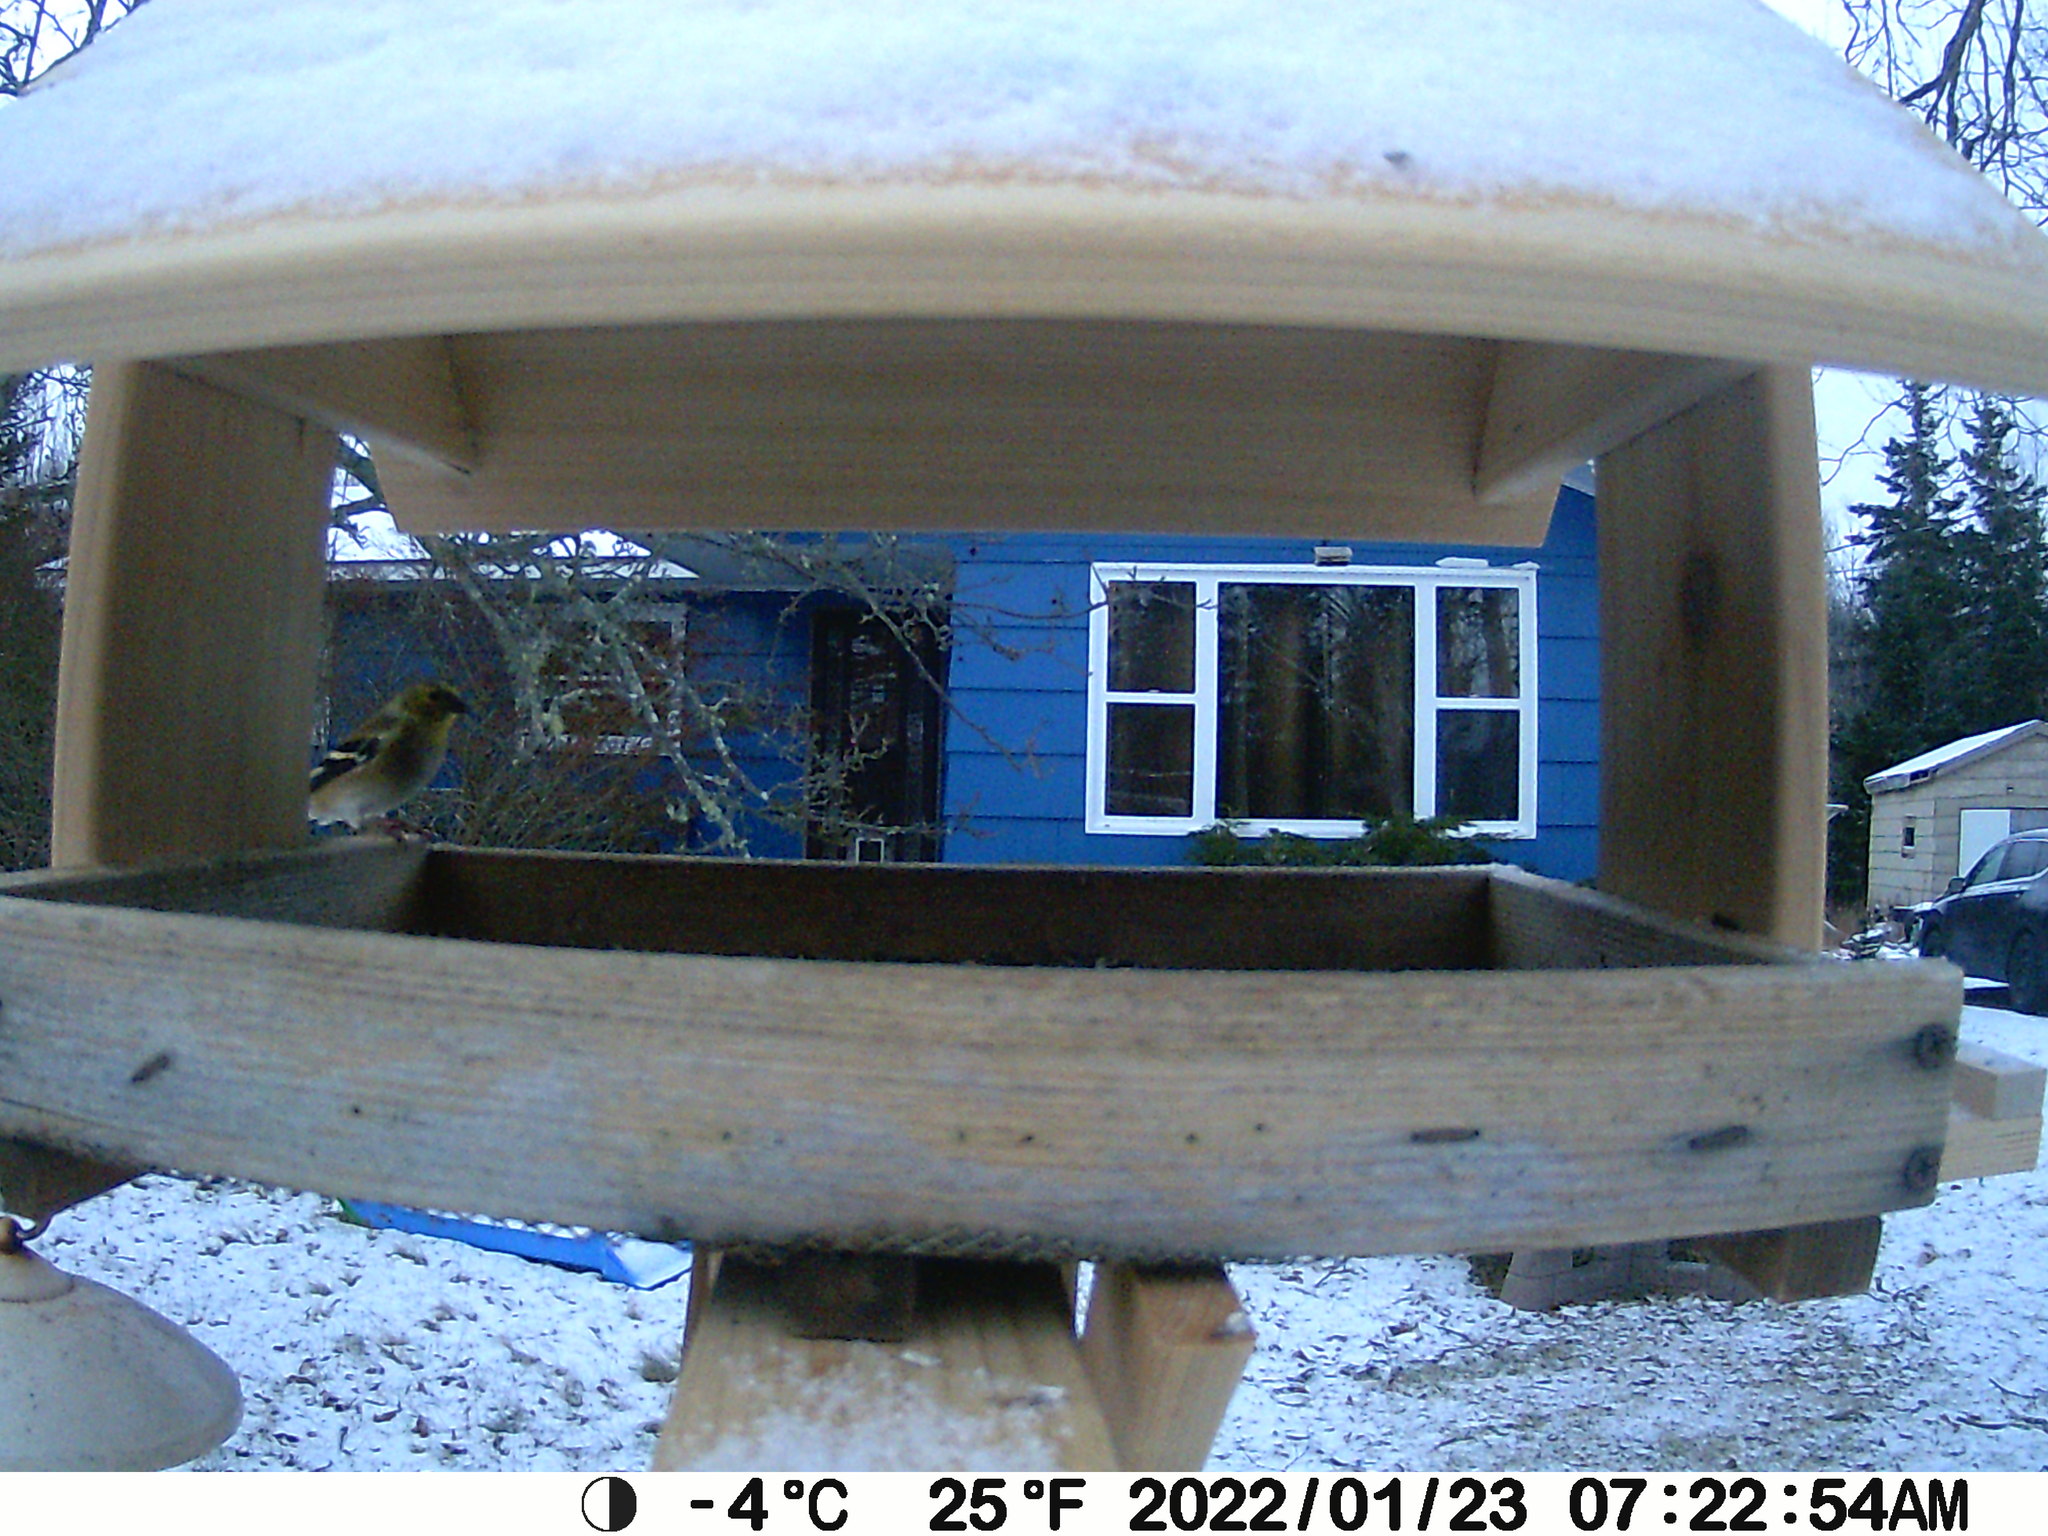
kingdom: Animalia
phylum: Chordata
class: Aves
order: Passeriformes
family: Fringillidae
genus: Spinus
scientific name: Spinus tristis
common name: American goldfinch
